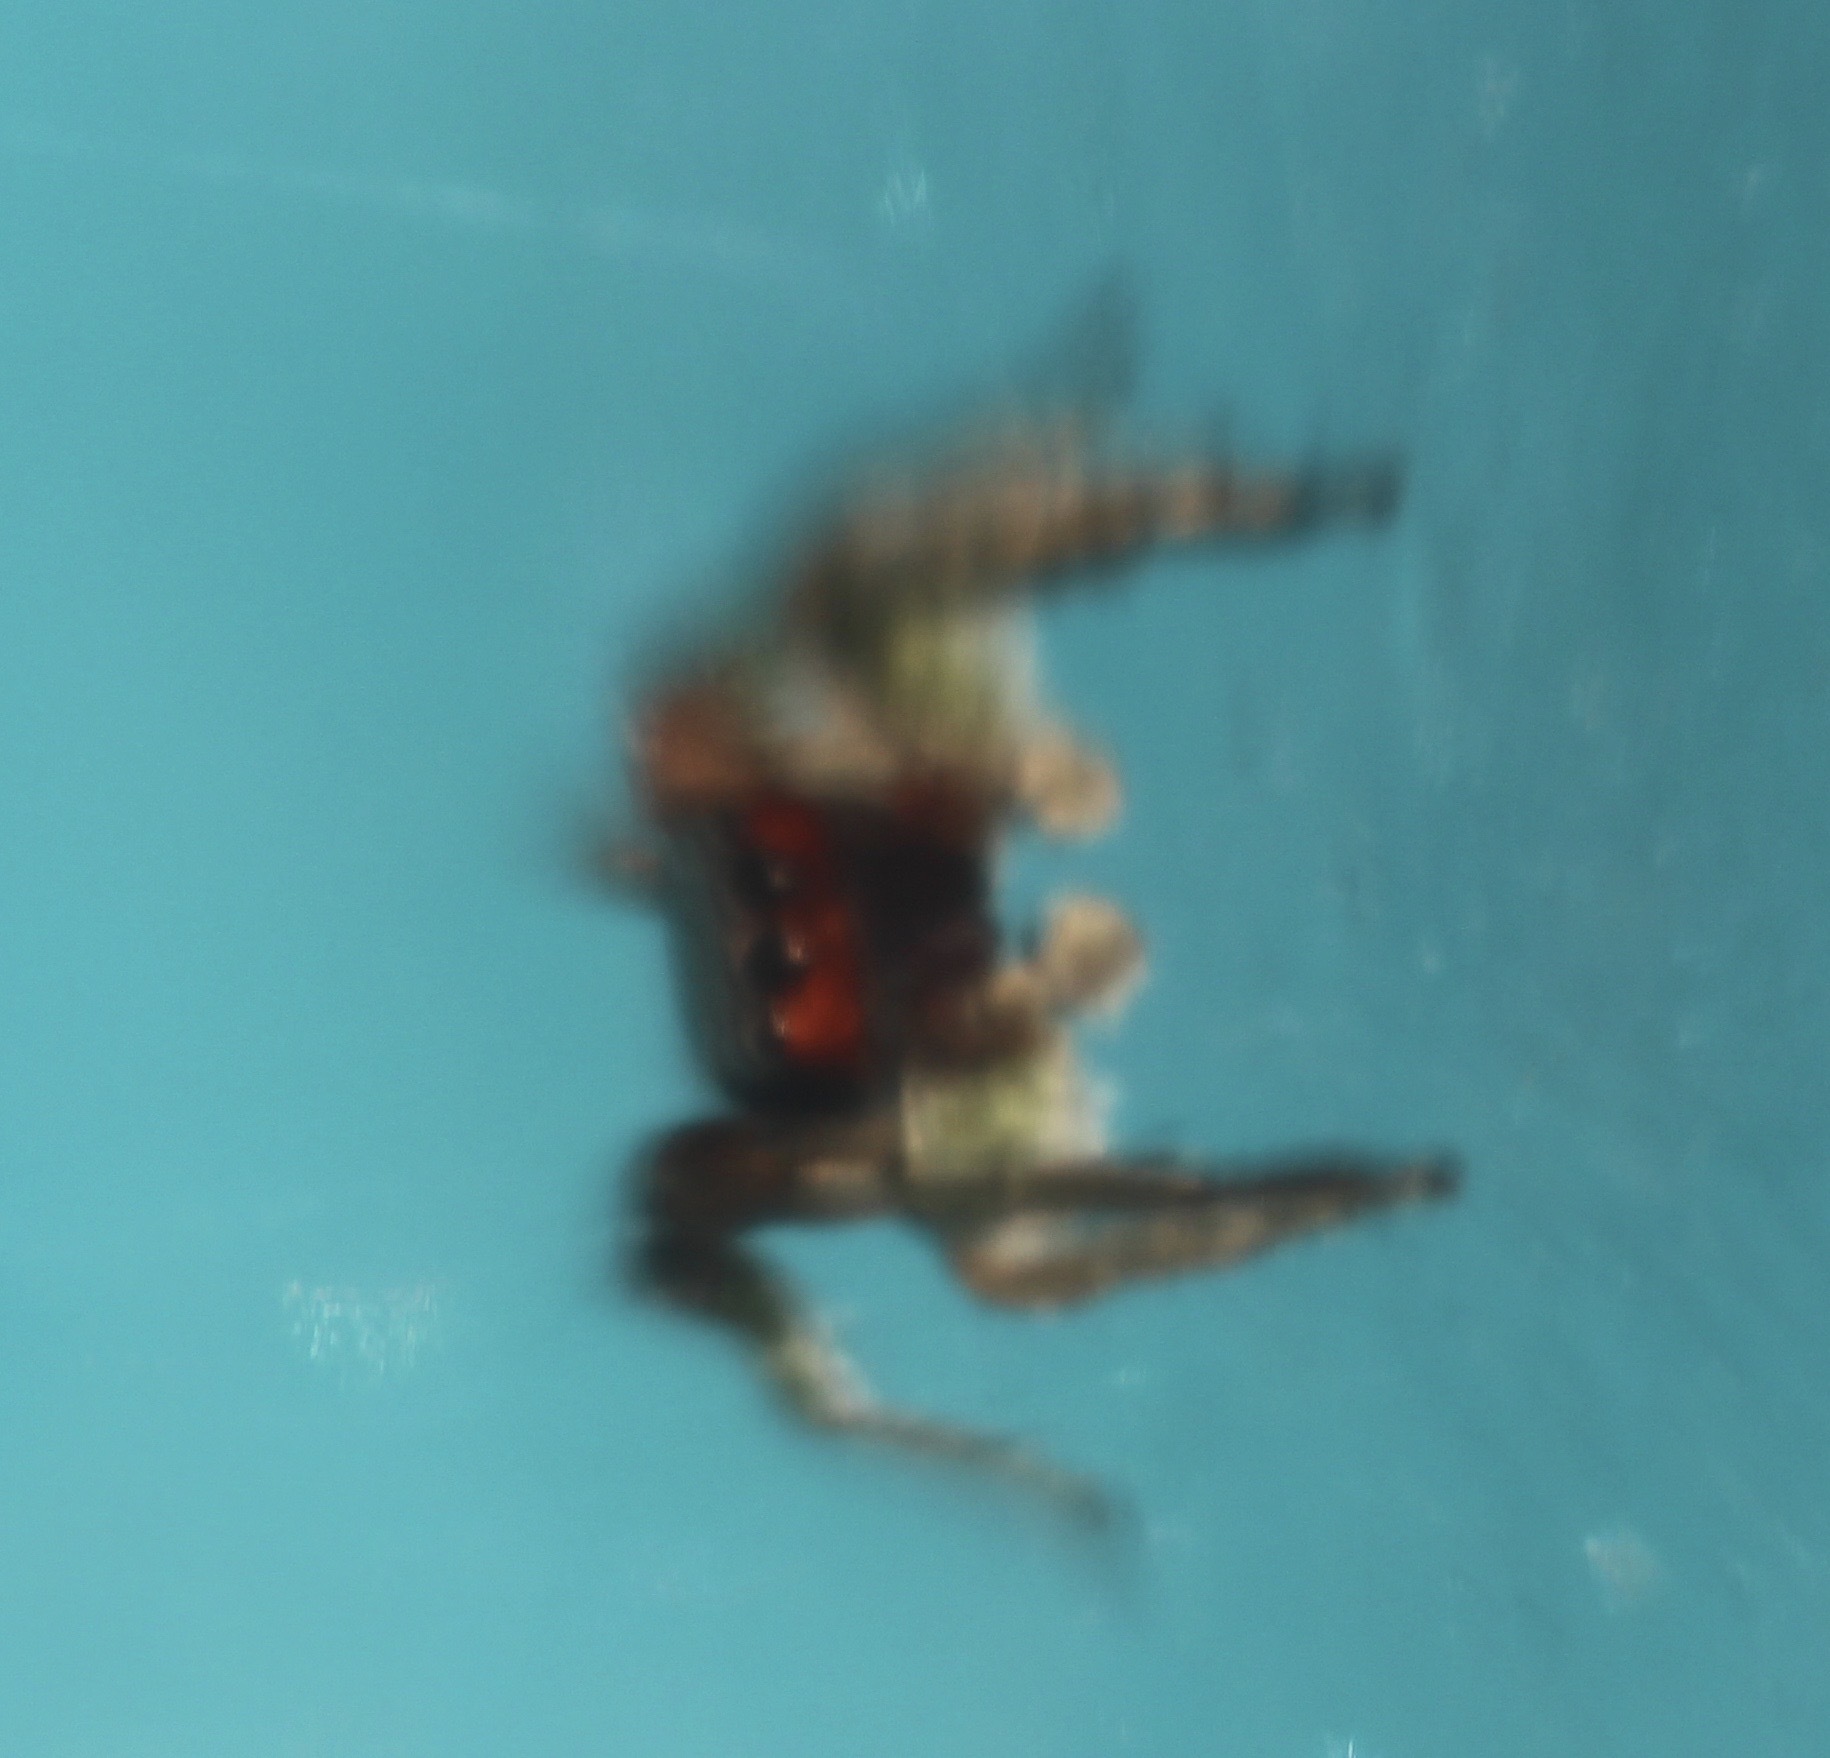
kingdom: Animalia
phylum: Arthropoda
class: Arachnida
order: Araneae
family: Salticidae
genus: Habronattus
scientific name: Habronattus pyrrithrix
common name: Jumping spider
